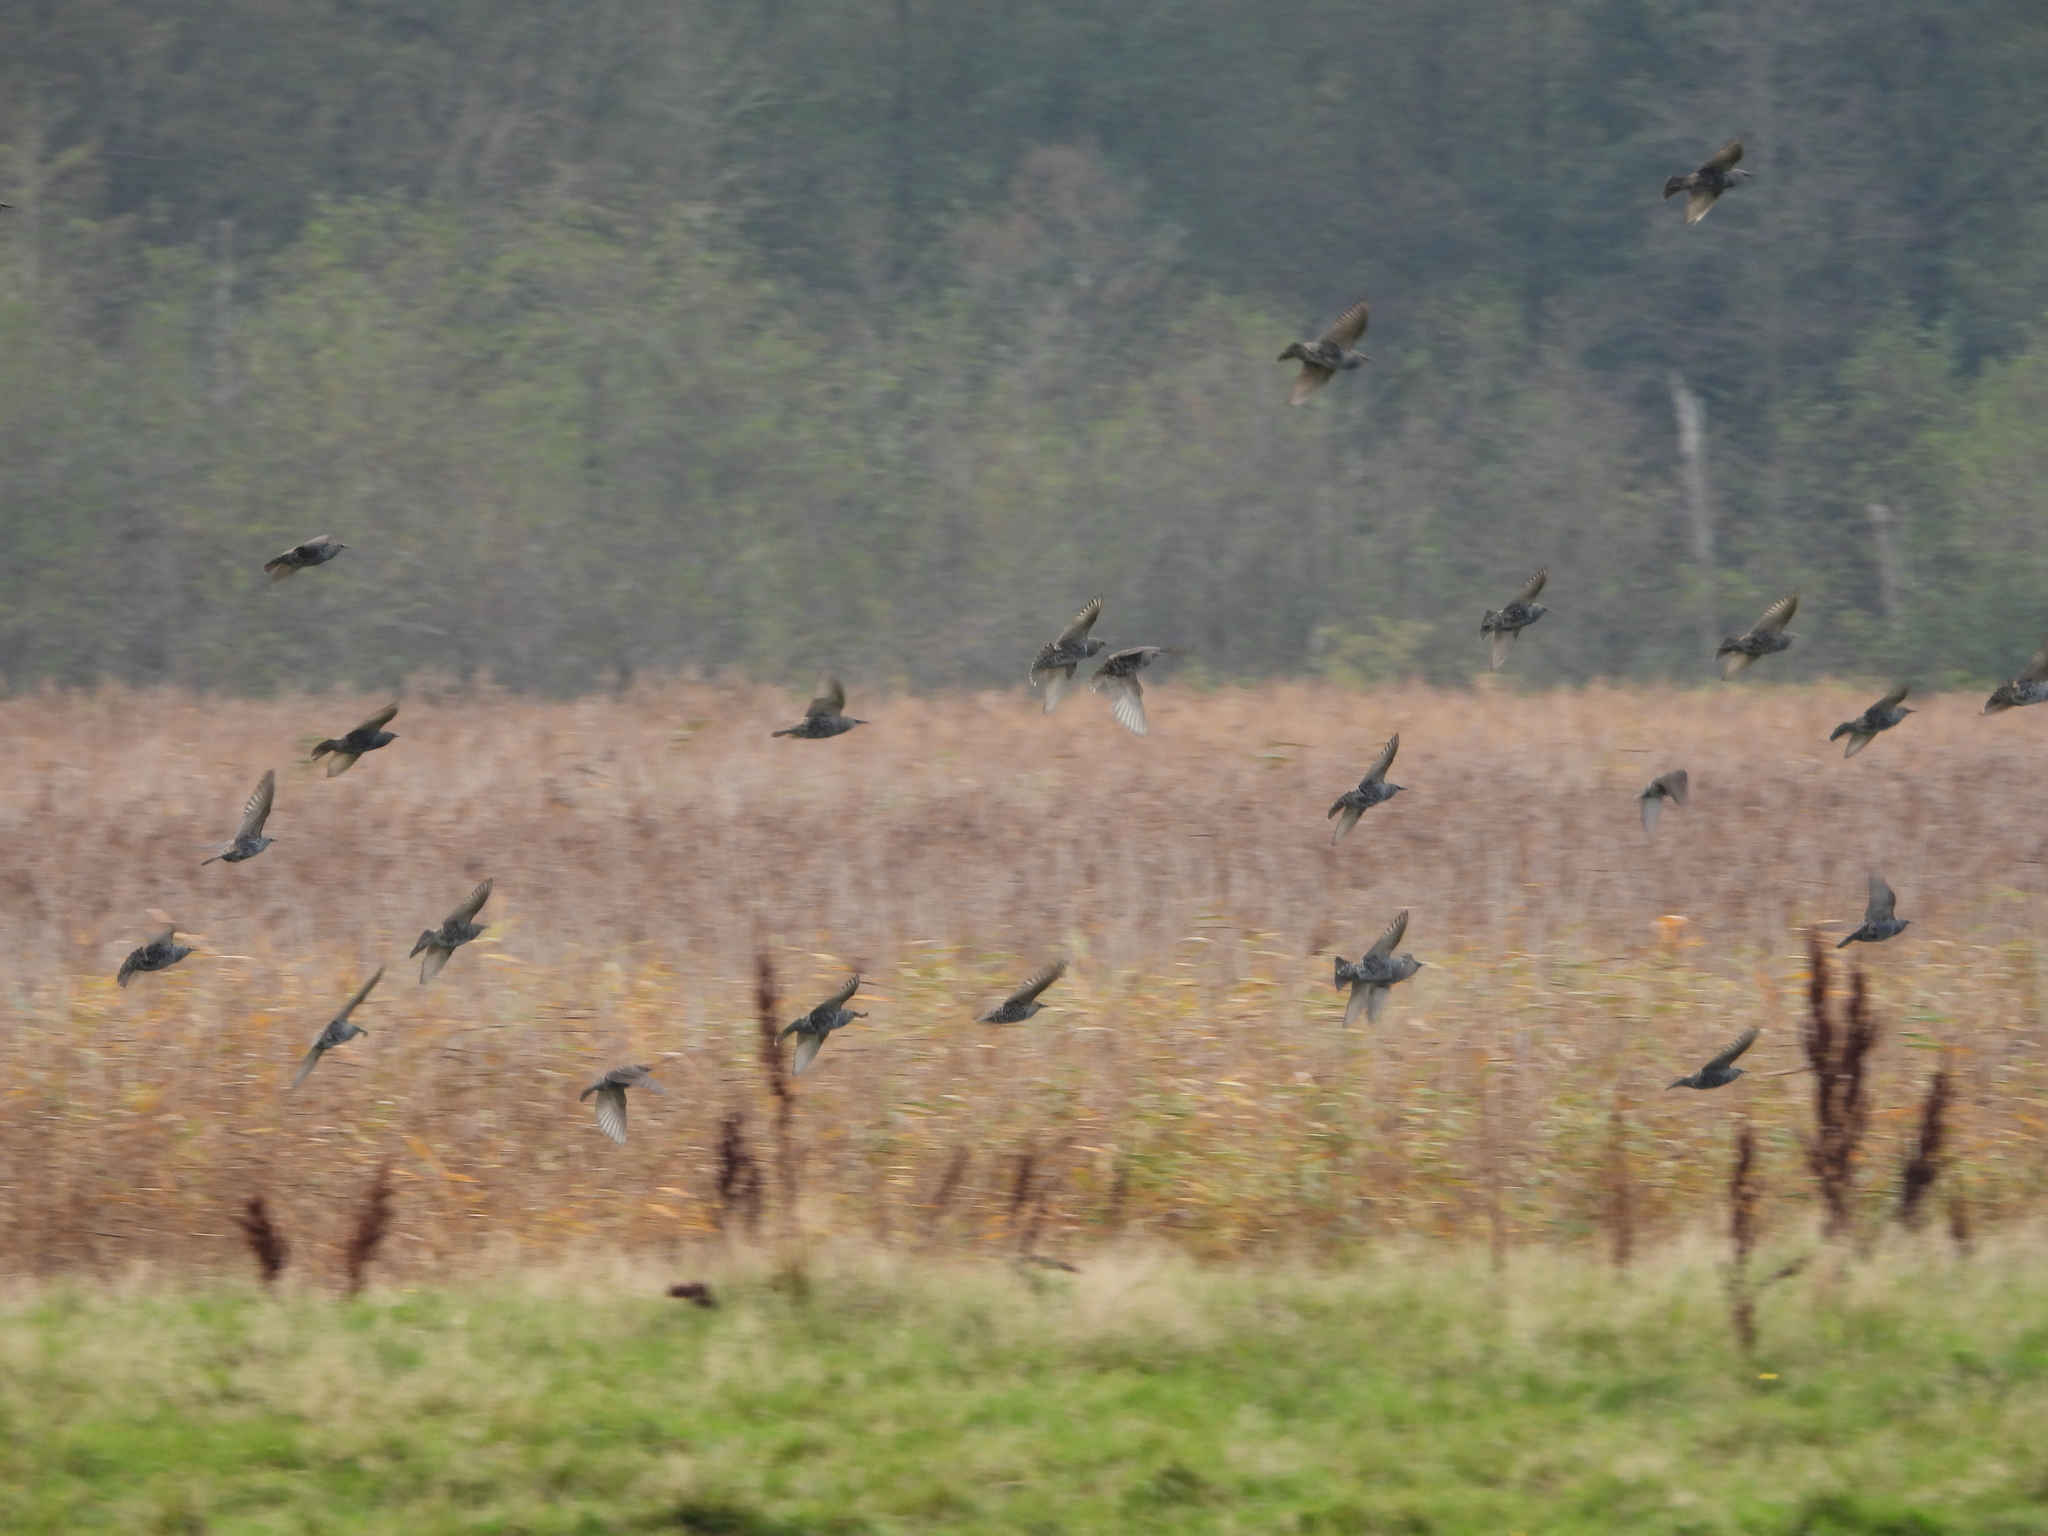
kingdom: Animalia
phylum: Chordata
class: Aves
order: Passeriformes
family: Sturnidae
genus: Sturnus
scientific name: Sturnus vulgaris
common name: Common starling
